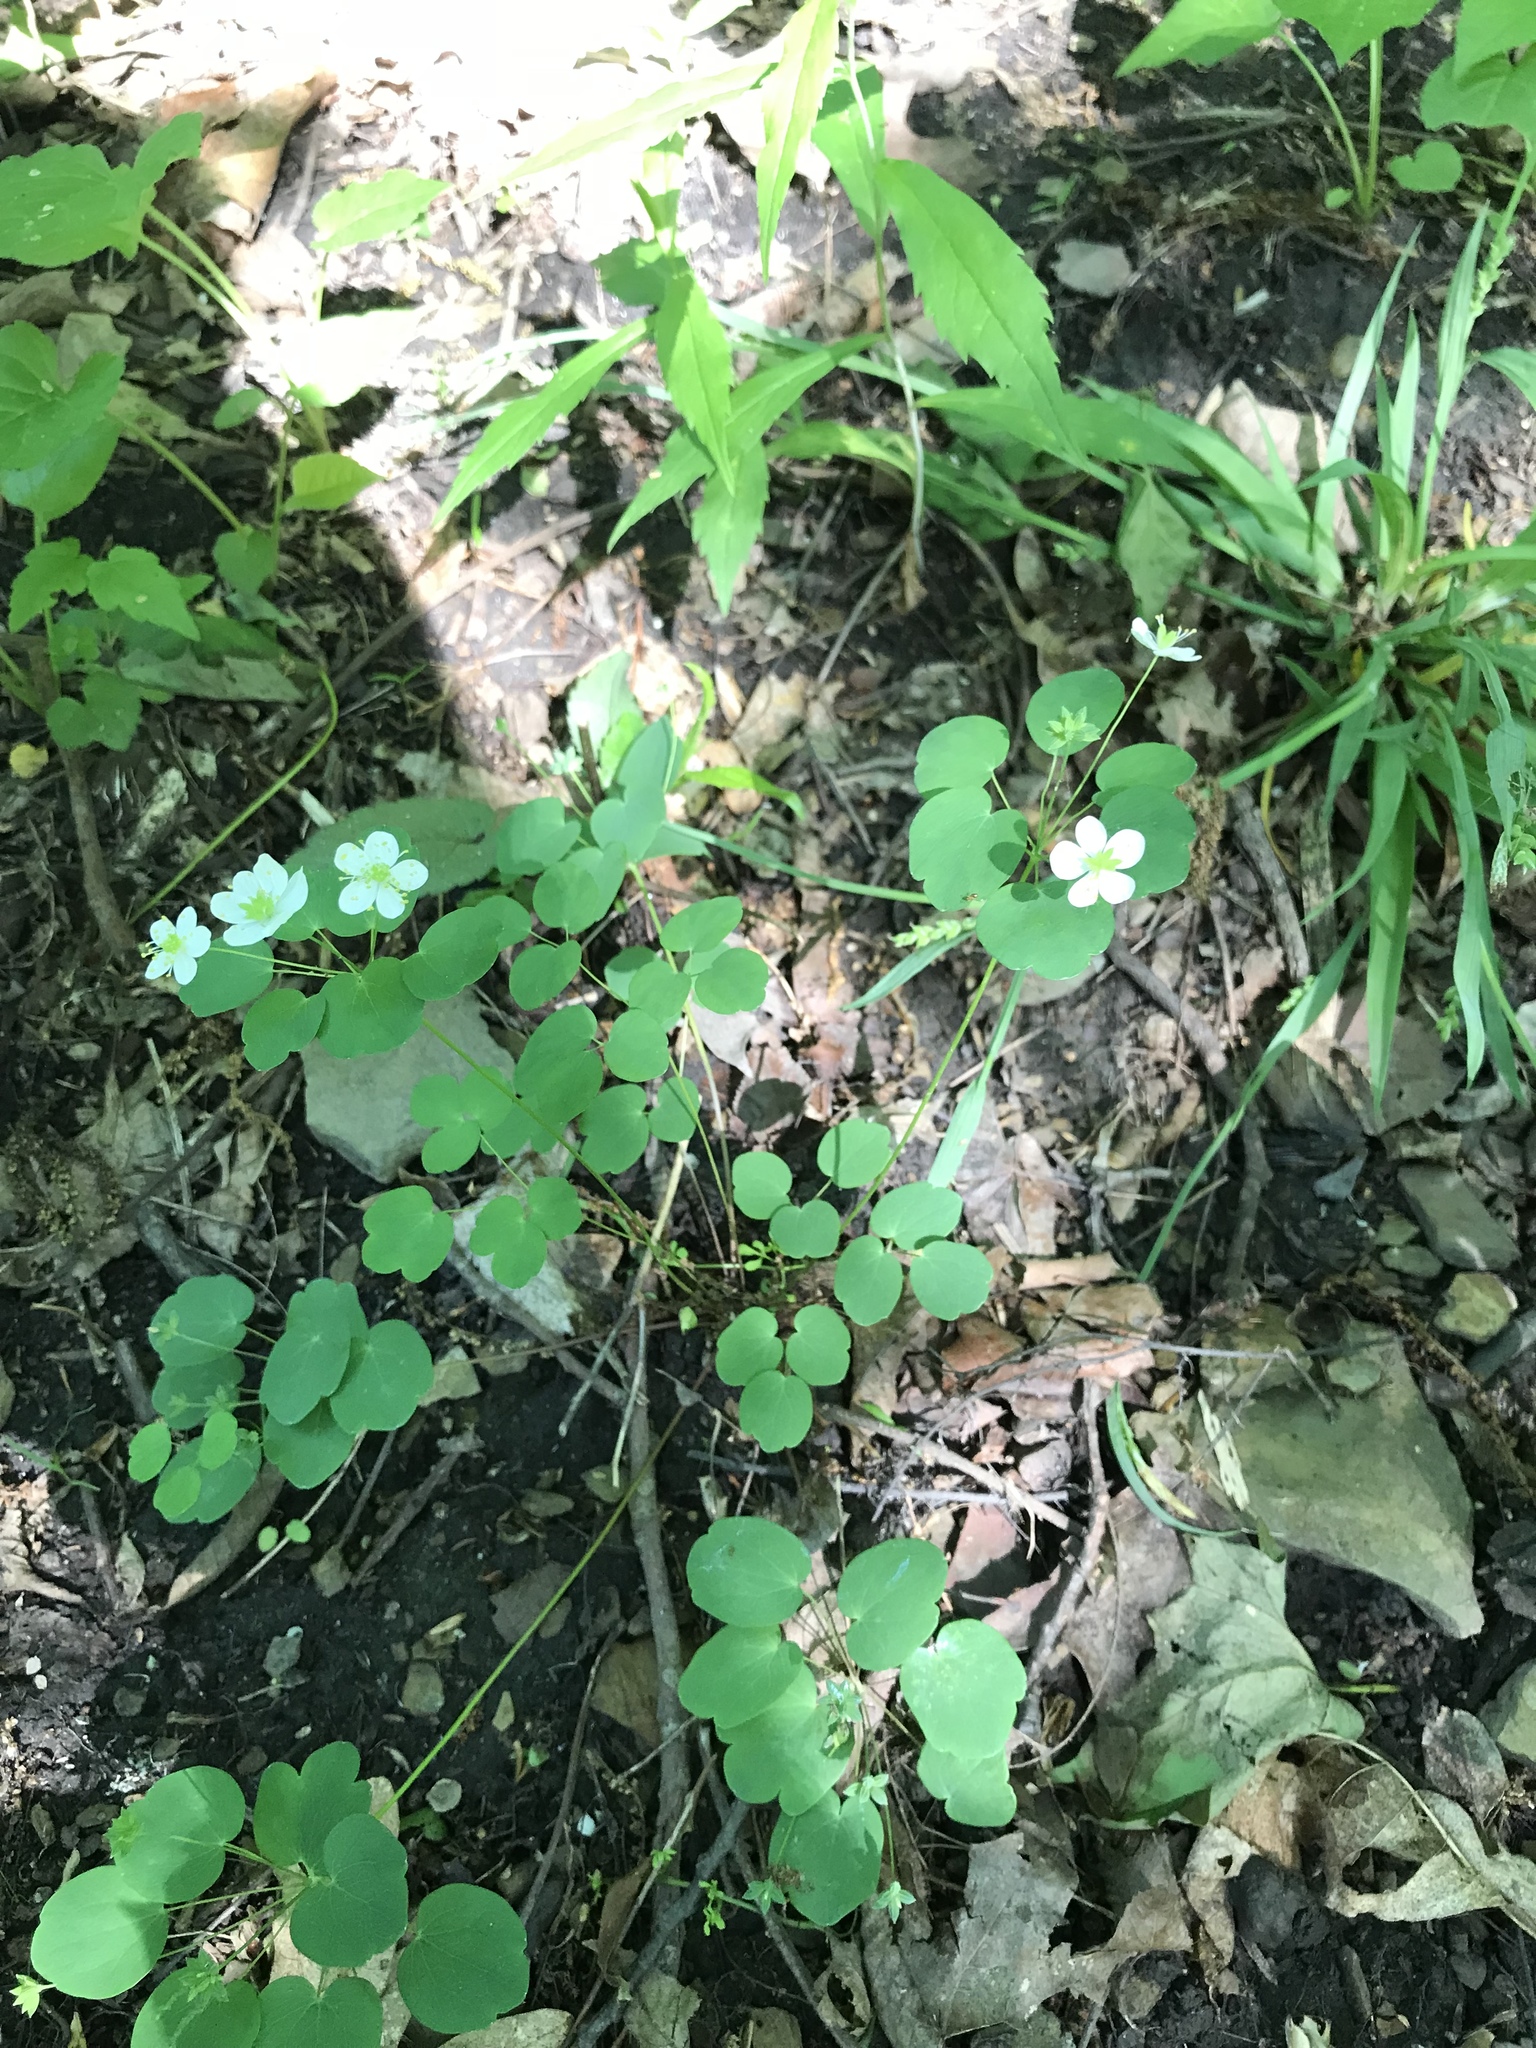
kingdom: Plantae
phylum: Tracheophyta
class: Magnoliopsida
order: Ranunculales
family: Ranunculaceae
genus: Thalictrum
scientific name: Thalictrum thalictroides
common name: Rue-anemone
